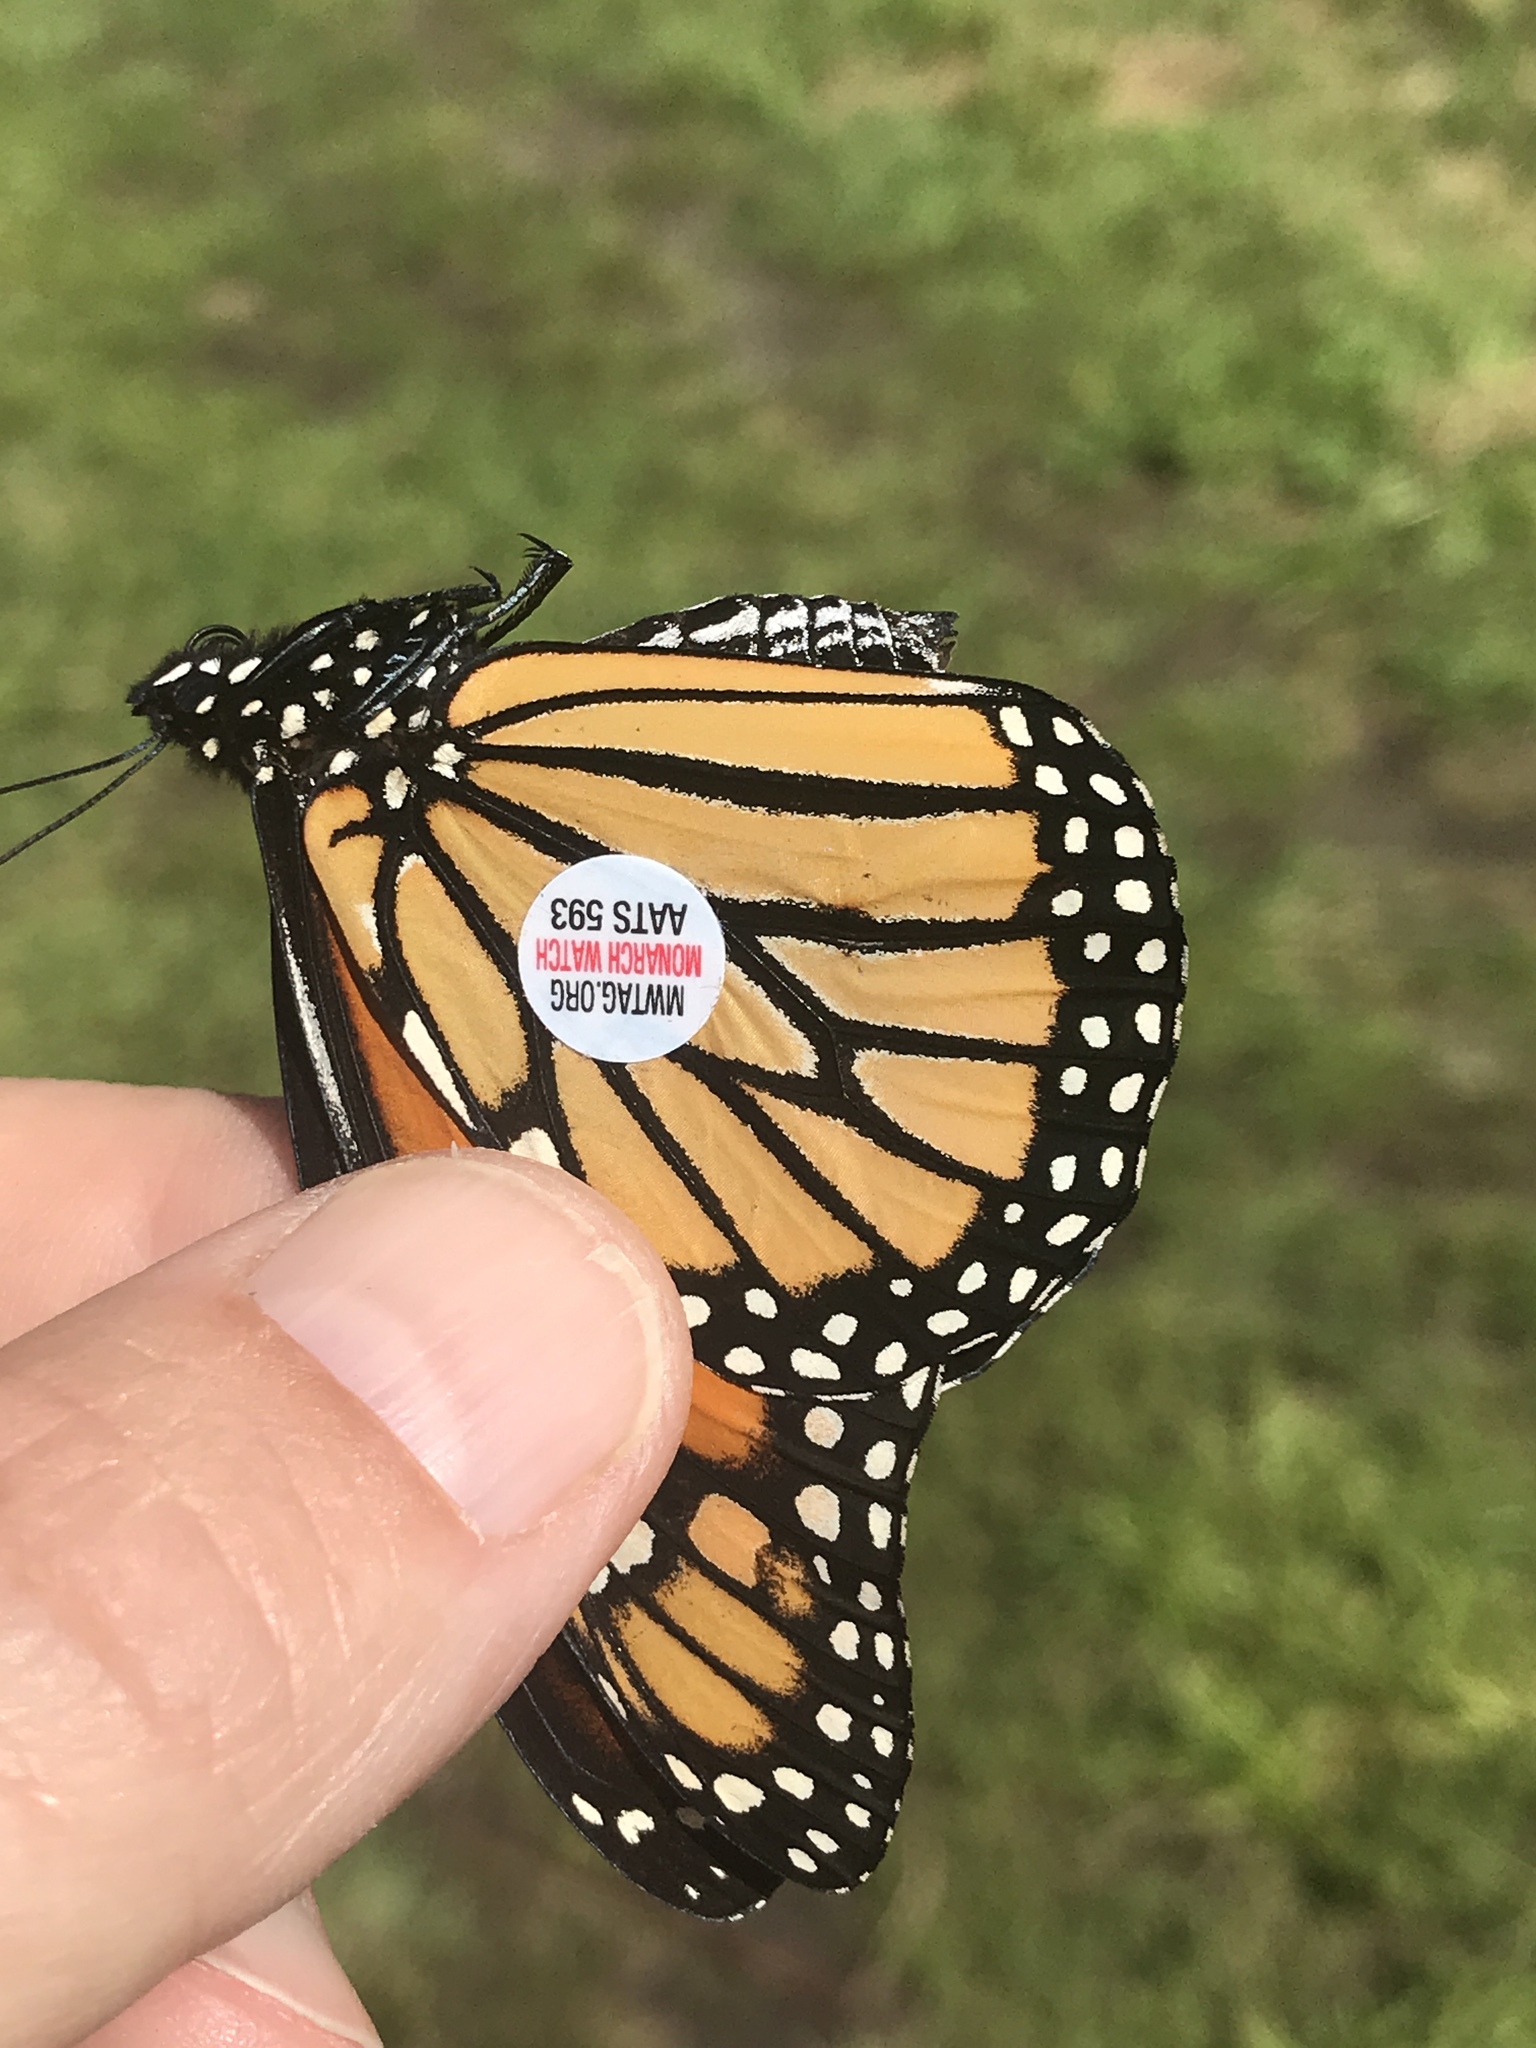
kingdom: Animalia
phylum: Arthropoda
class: Insecta
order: Lepidoptera
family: Nymphalidae
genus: Danaus
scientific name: Danaus plexippus
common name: Monarch
